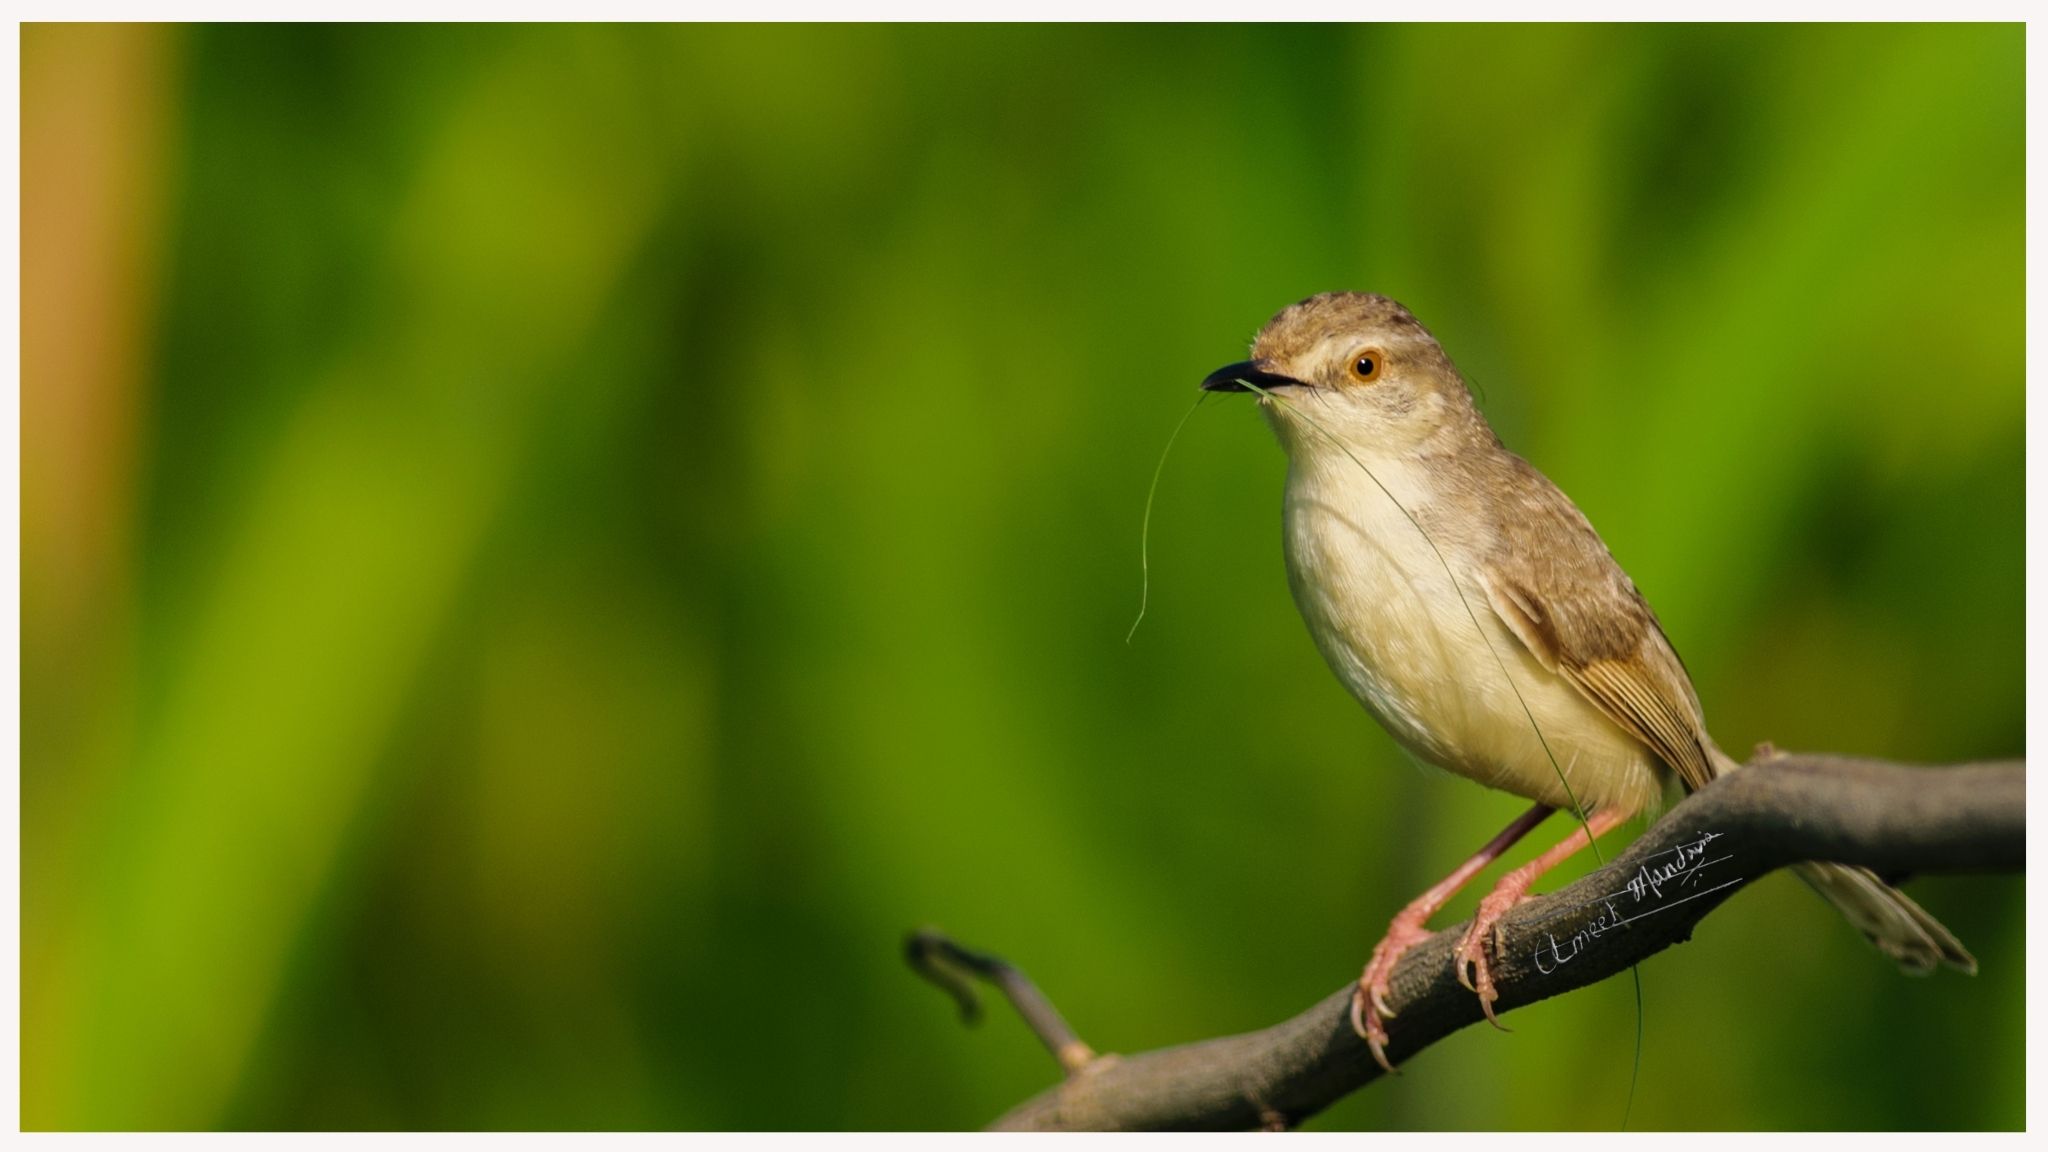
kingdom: Animalia
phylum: Chordata
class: Aves
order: Passeriformes
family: Cisticolidae
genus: Prinia
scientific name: Prinia inornata
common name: Plain prinia
